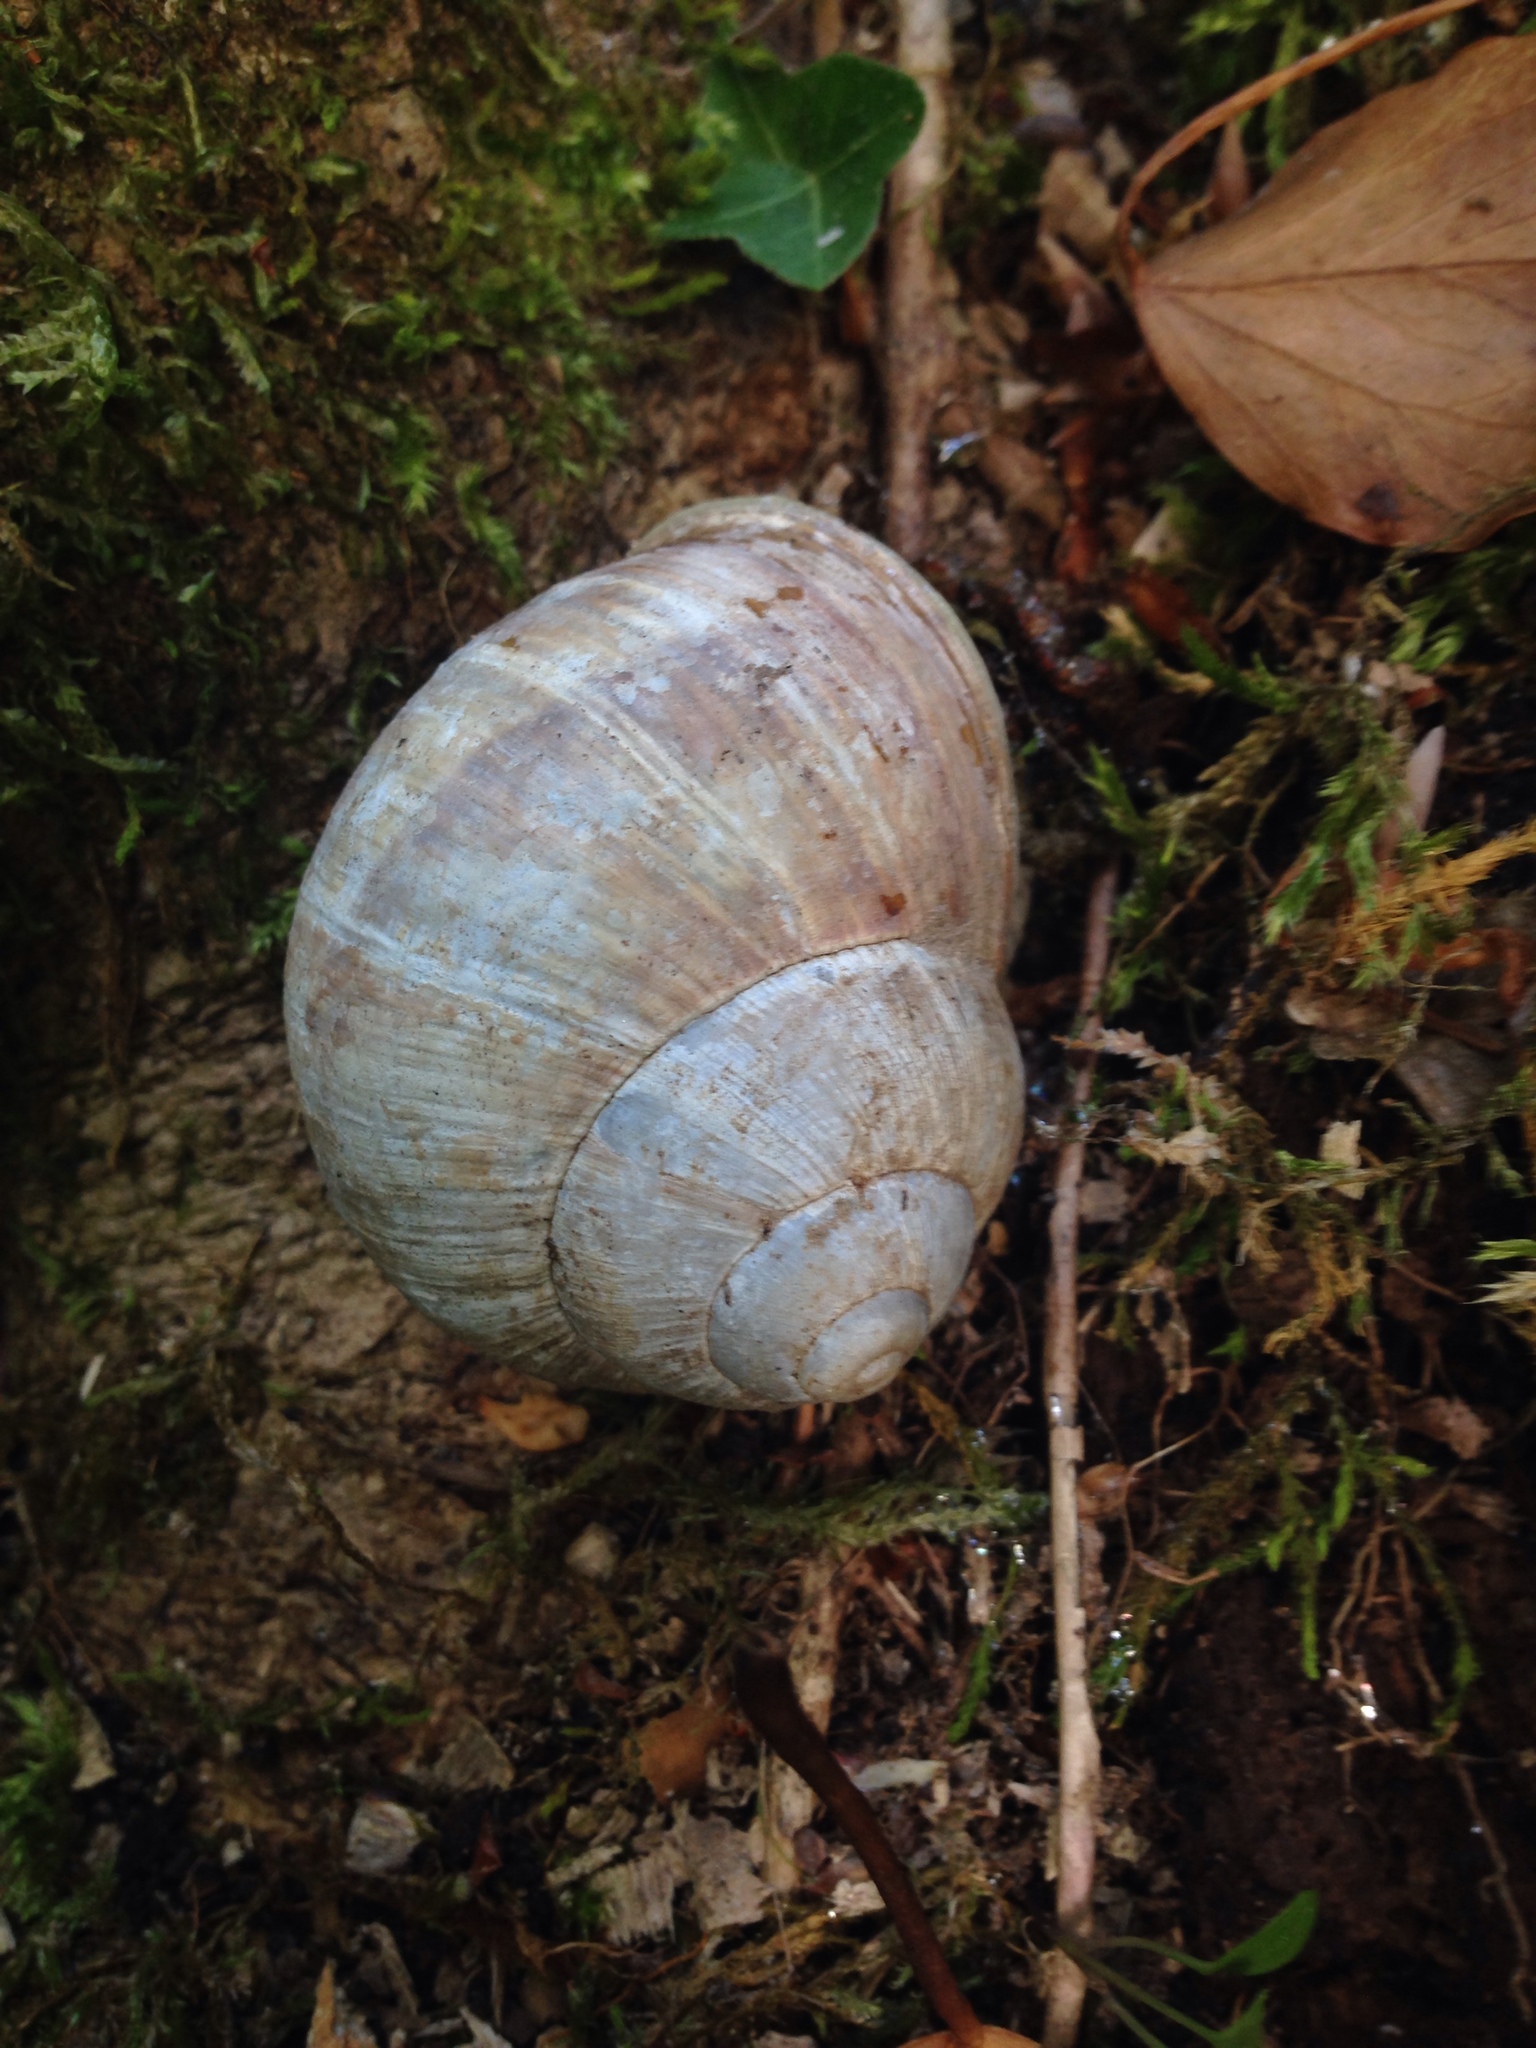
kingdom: Animalia
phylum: Mollusca
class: Gastropoda
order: Stylommatophora
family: Helicidae
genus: Helix
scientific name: Helix pomatia
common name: Roman snail
